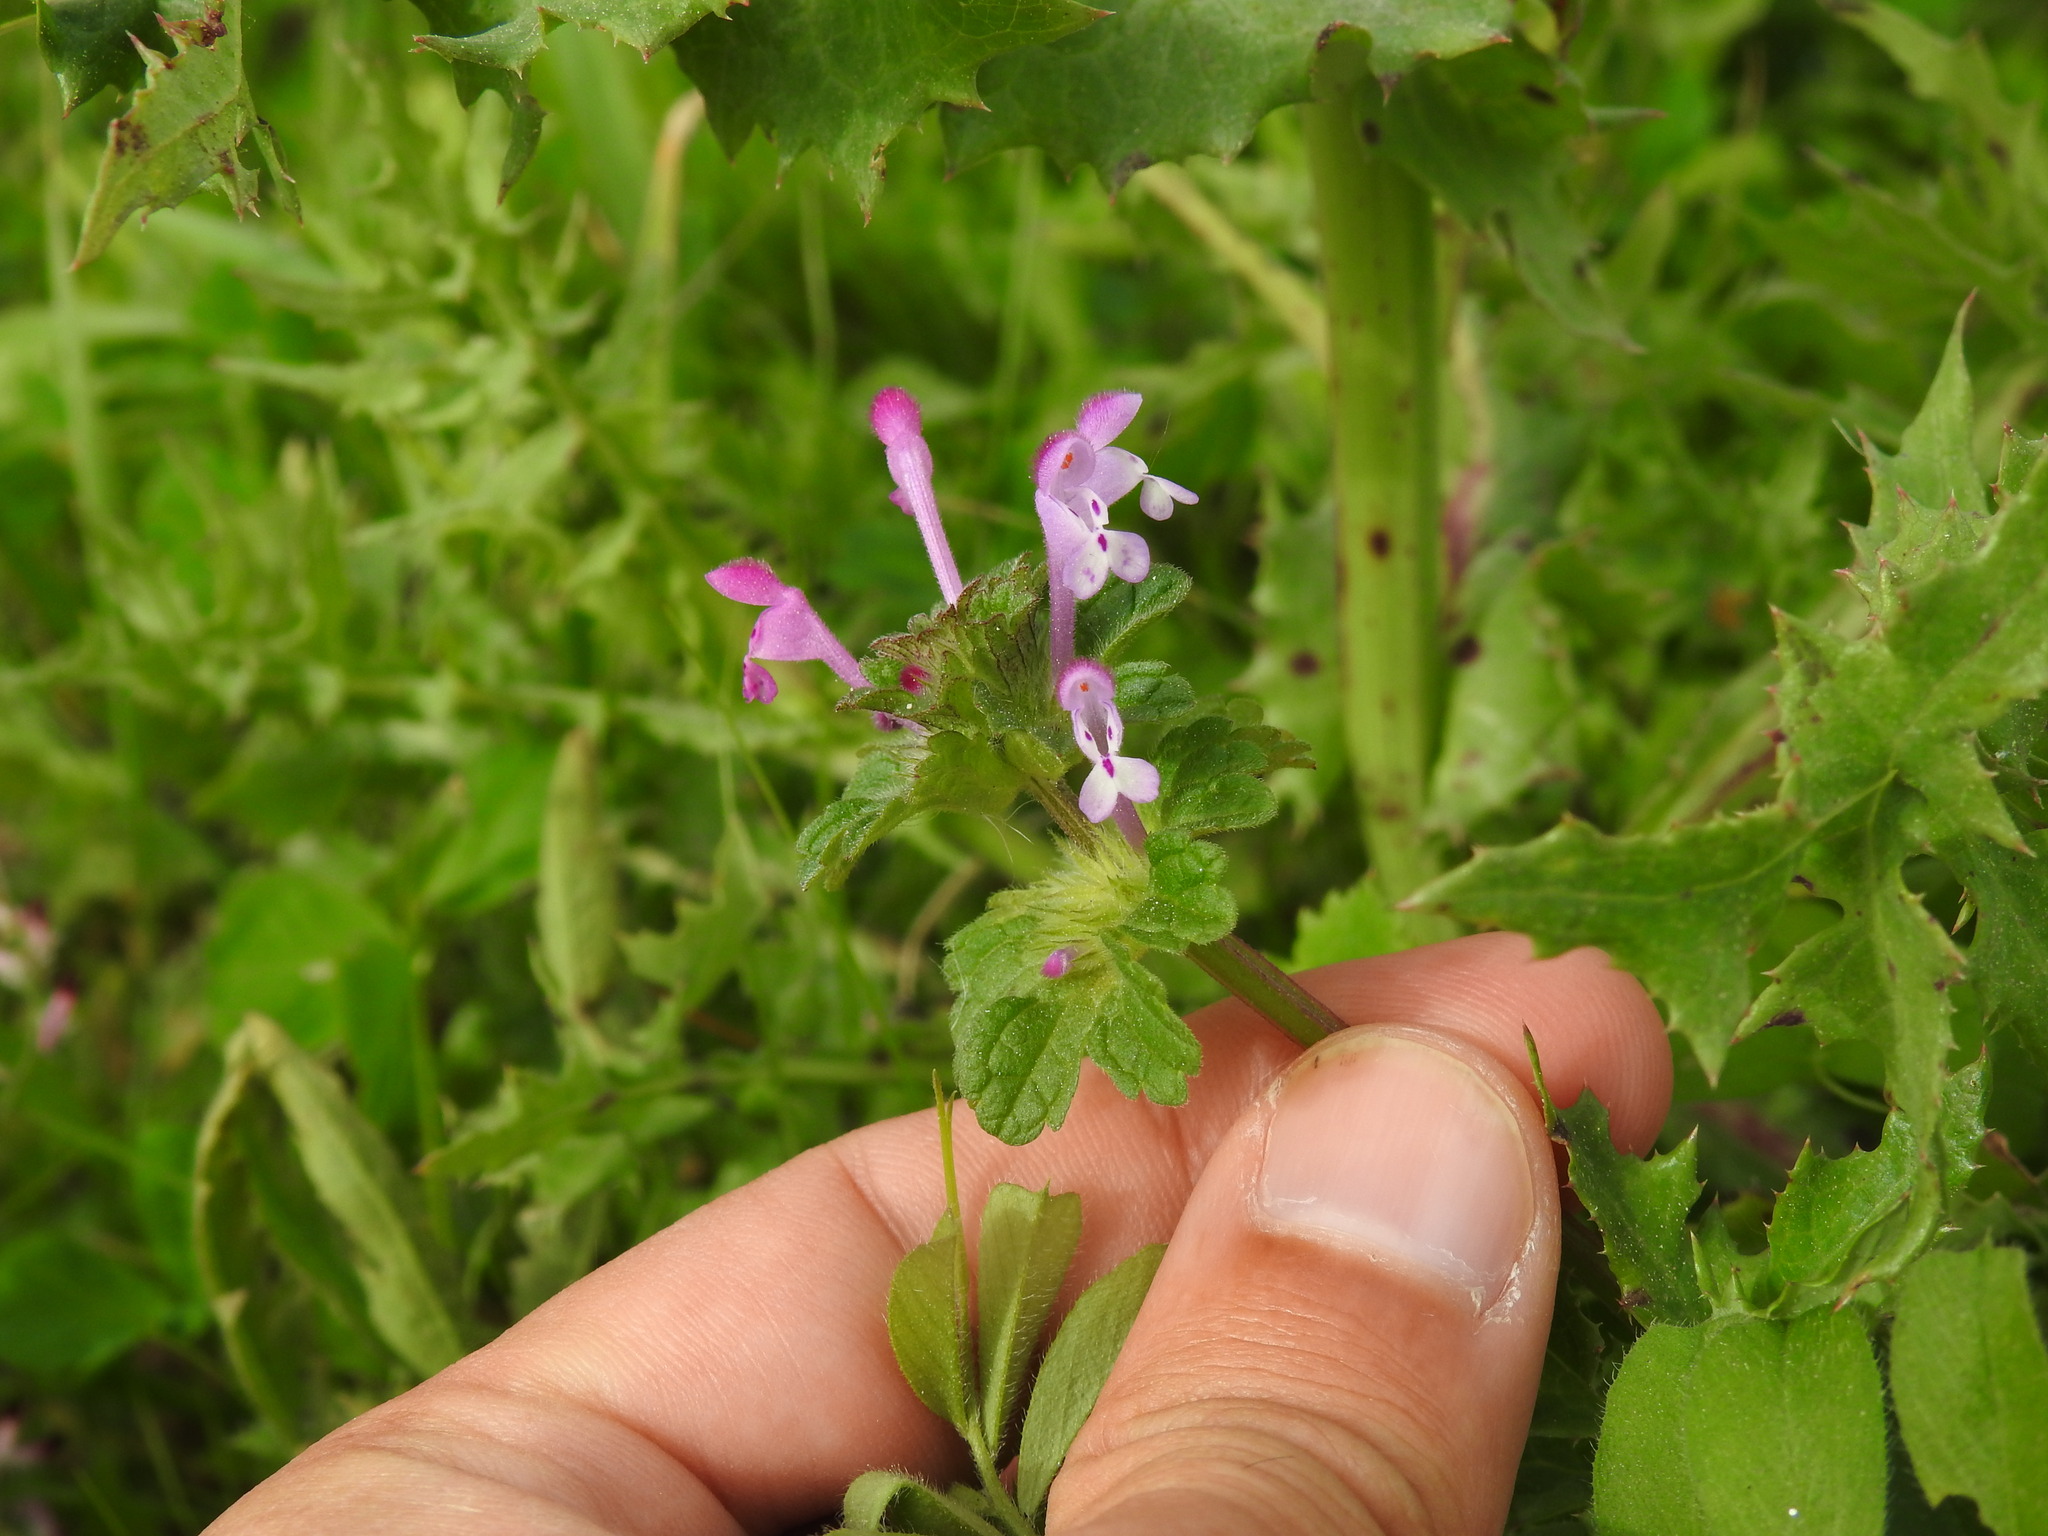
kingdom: Plantae
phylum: Tracheophyta
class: Magnoliopsida
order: Lamiales
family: Lamiaceae
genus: Lamium
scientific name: Lamium amplexicaule
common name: Henbit dead-nettle
